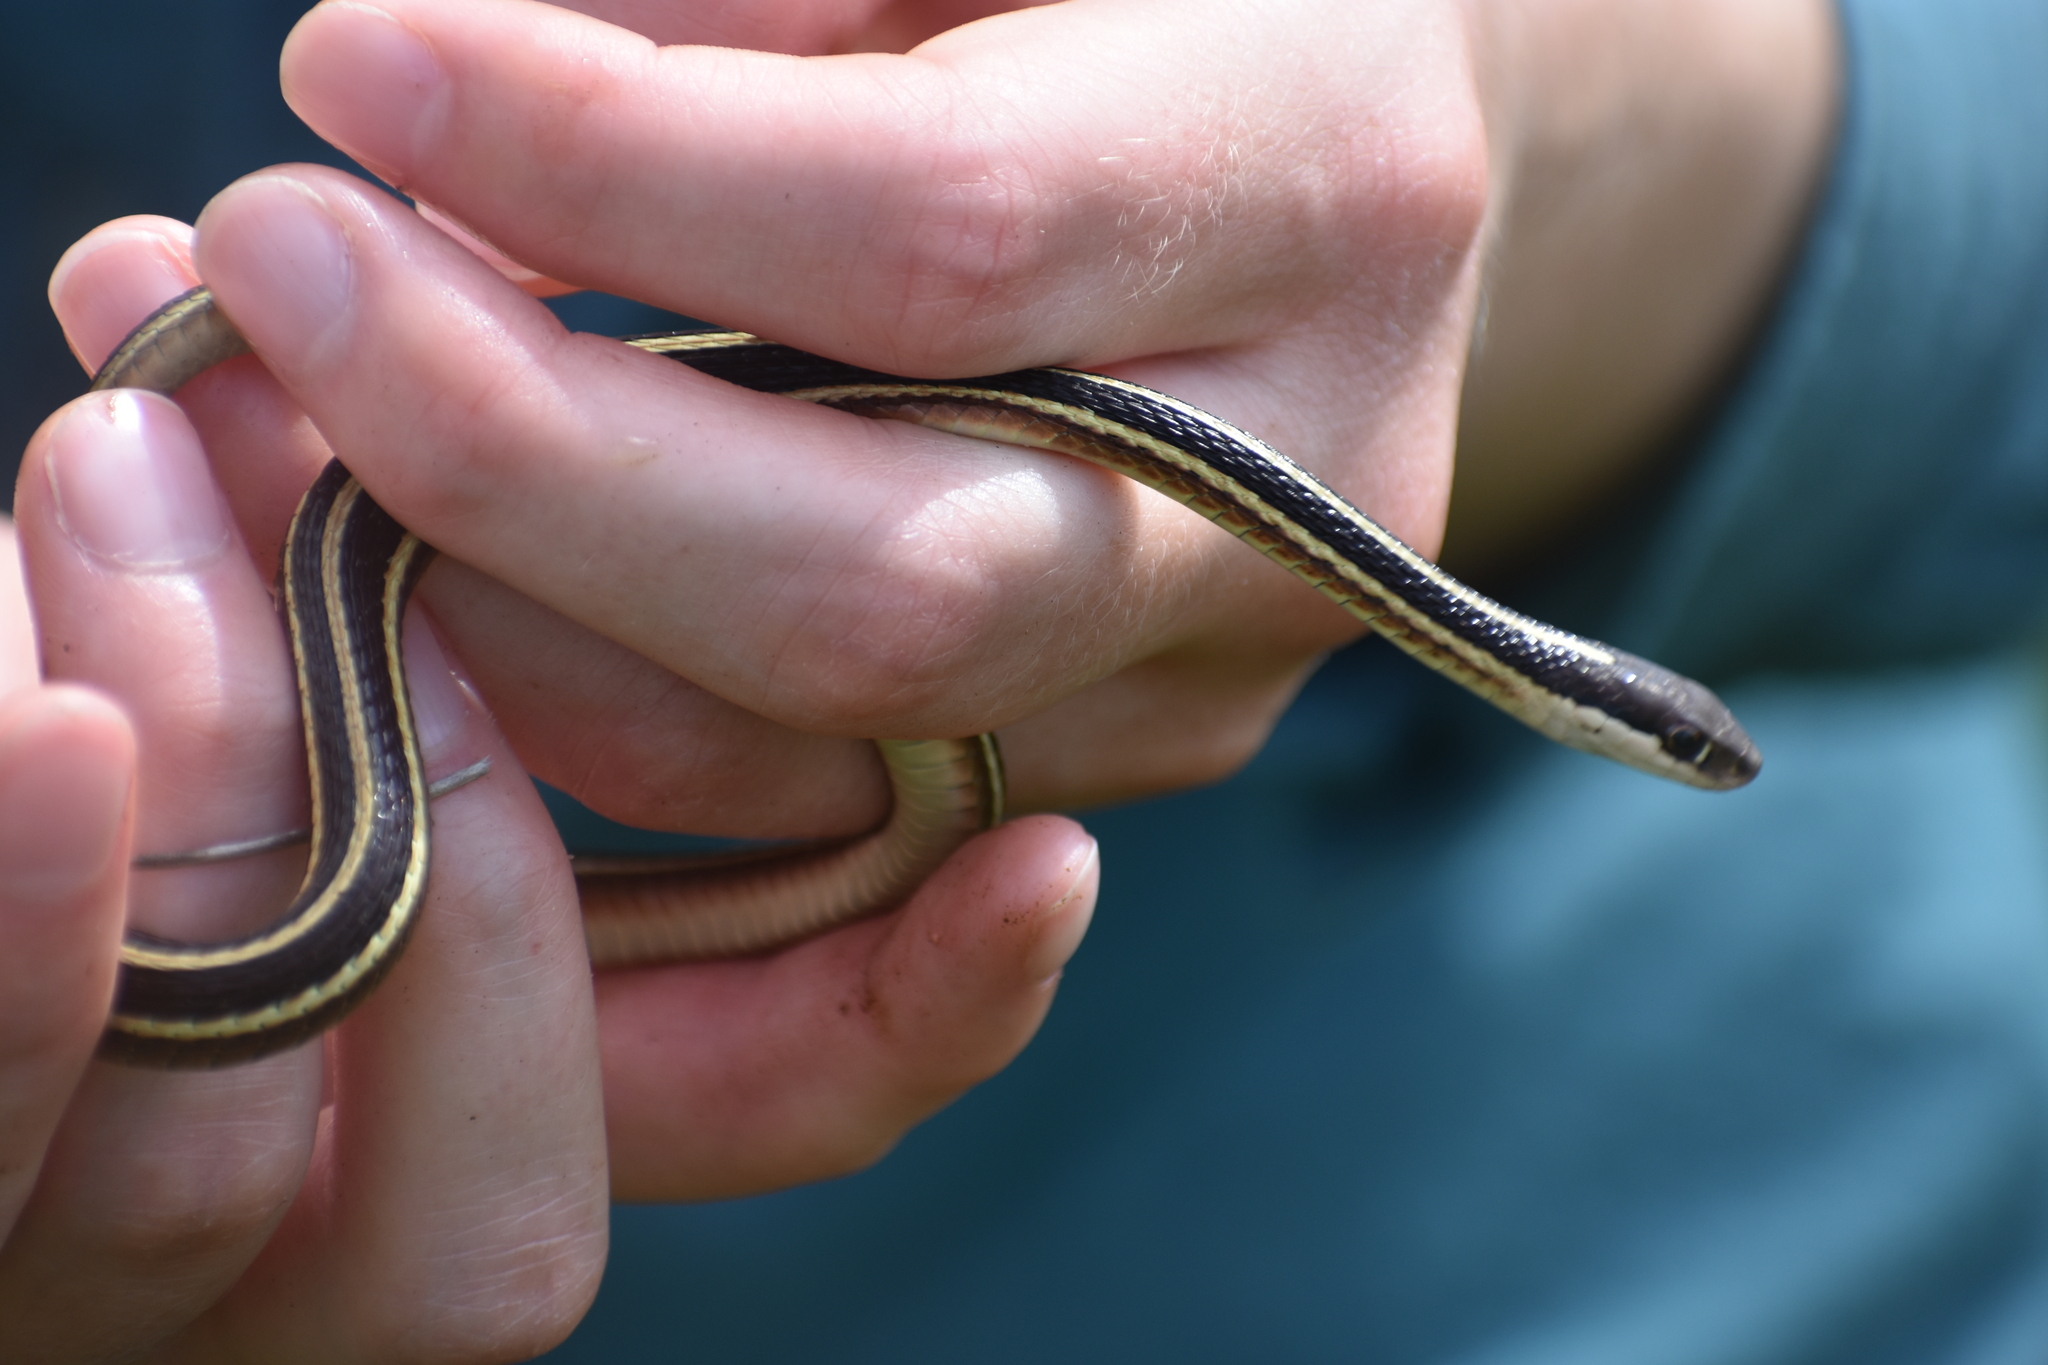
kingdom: Animalia
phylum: Chordata
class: Squamata
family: Colubridae
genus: Thamnophis
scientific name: Thamnophis saurita
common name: Eastern ribbonsnake
